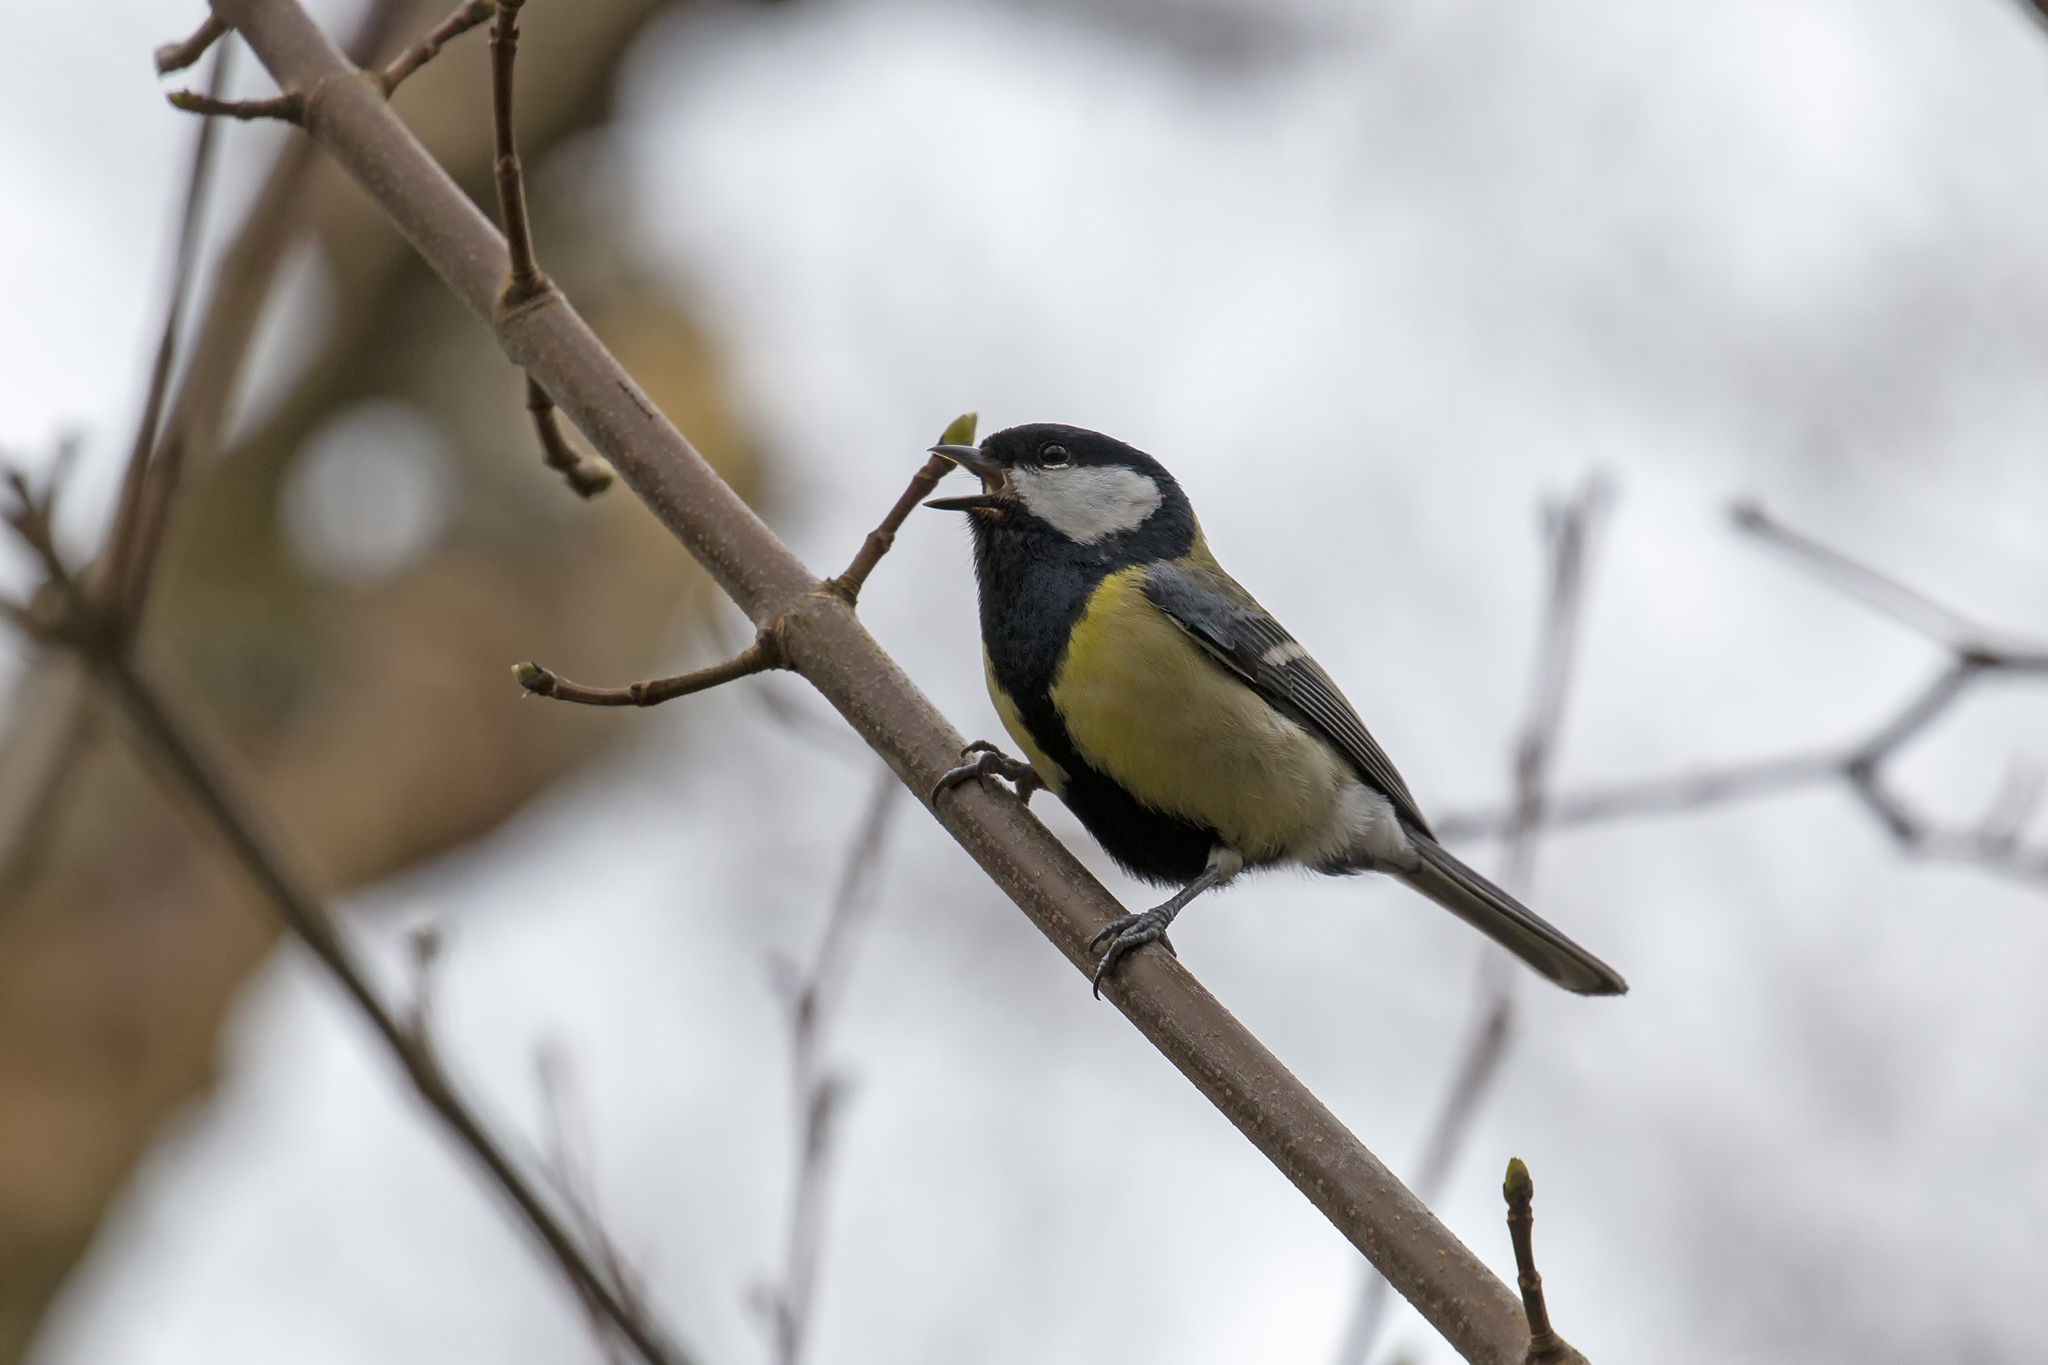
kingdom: Animalia
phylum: Chordata
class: Aves
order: Passeriformes
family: Paridae
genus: Parus
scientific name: Parus major
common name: Great tit
